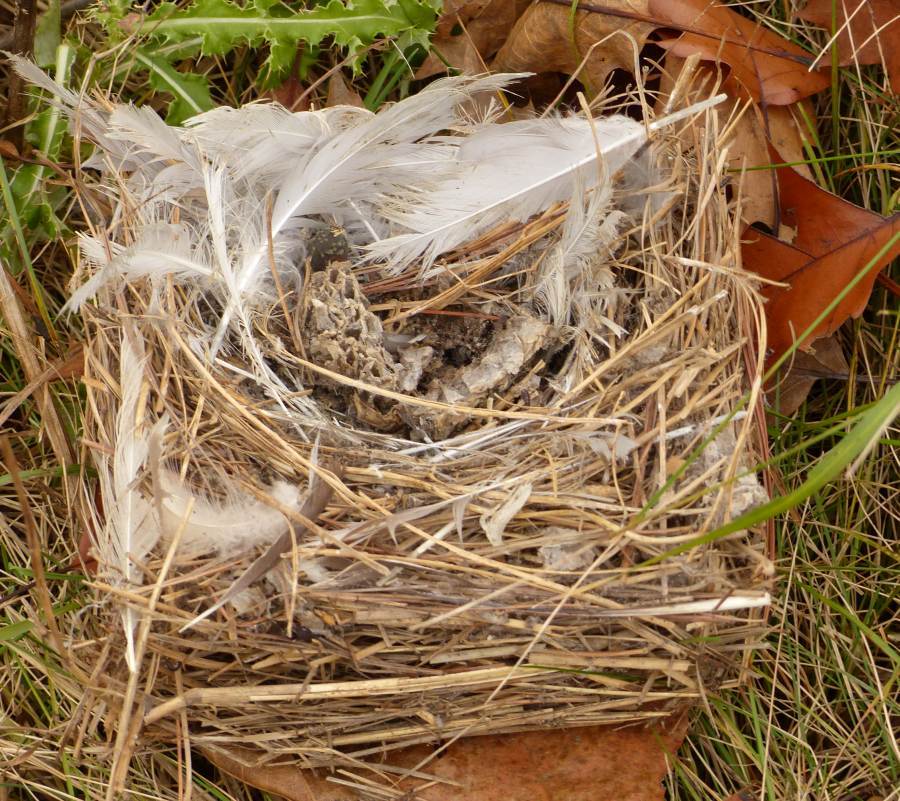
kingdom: Animalia
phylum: Chordata
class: Aves
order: Passeriformes
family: Hirundinidae
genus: Tachycineta
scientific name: Tachycineta bicolor
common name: Tree swallow
